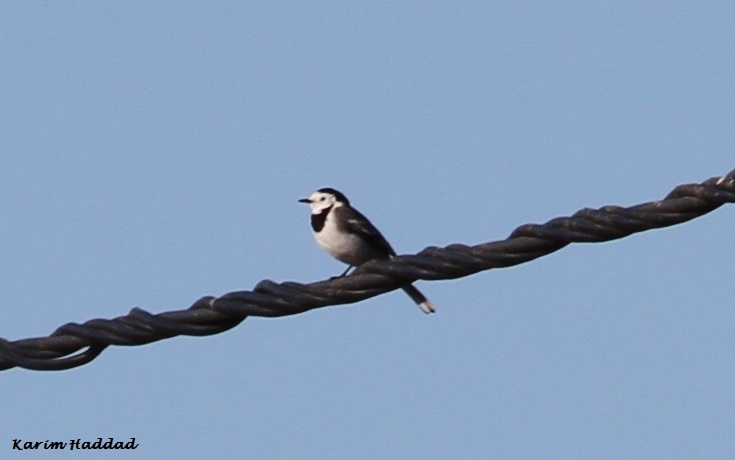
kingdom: Animalia
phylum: Chordata
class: Aves
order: Passeriformes
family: Motacillidae
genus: Motacilla
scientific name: Motacilla alba
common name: White wagtail
